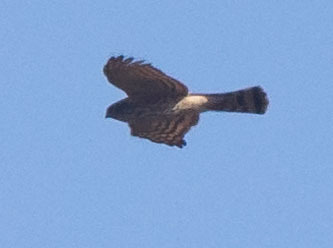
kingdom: Animalia
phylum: Chordata
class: Aves
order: Accipitriformes
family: Accipitridae
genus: Accipiter
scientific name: Accipiter striatus
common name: Sharp-shinned hawk
